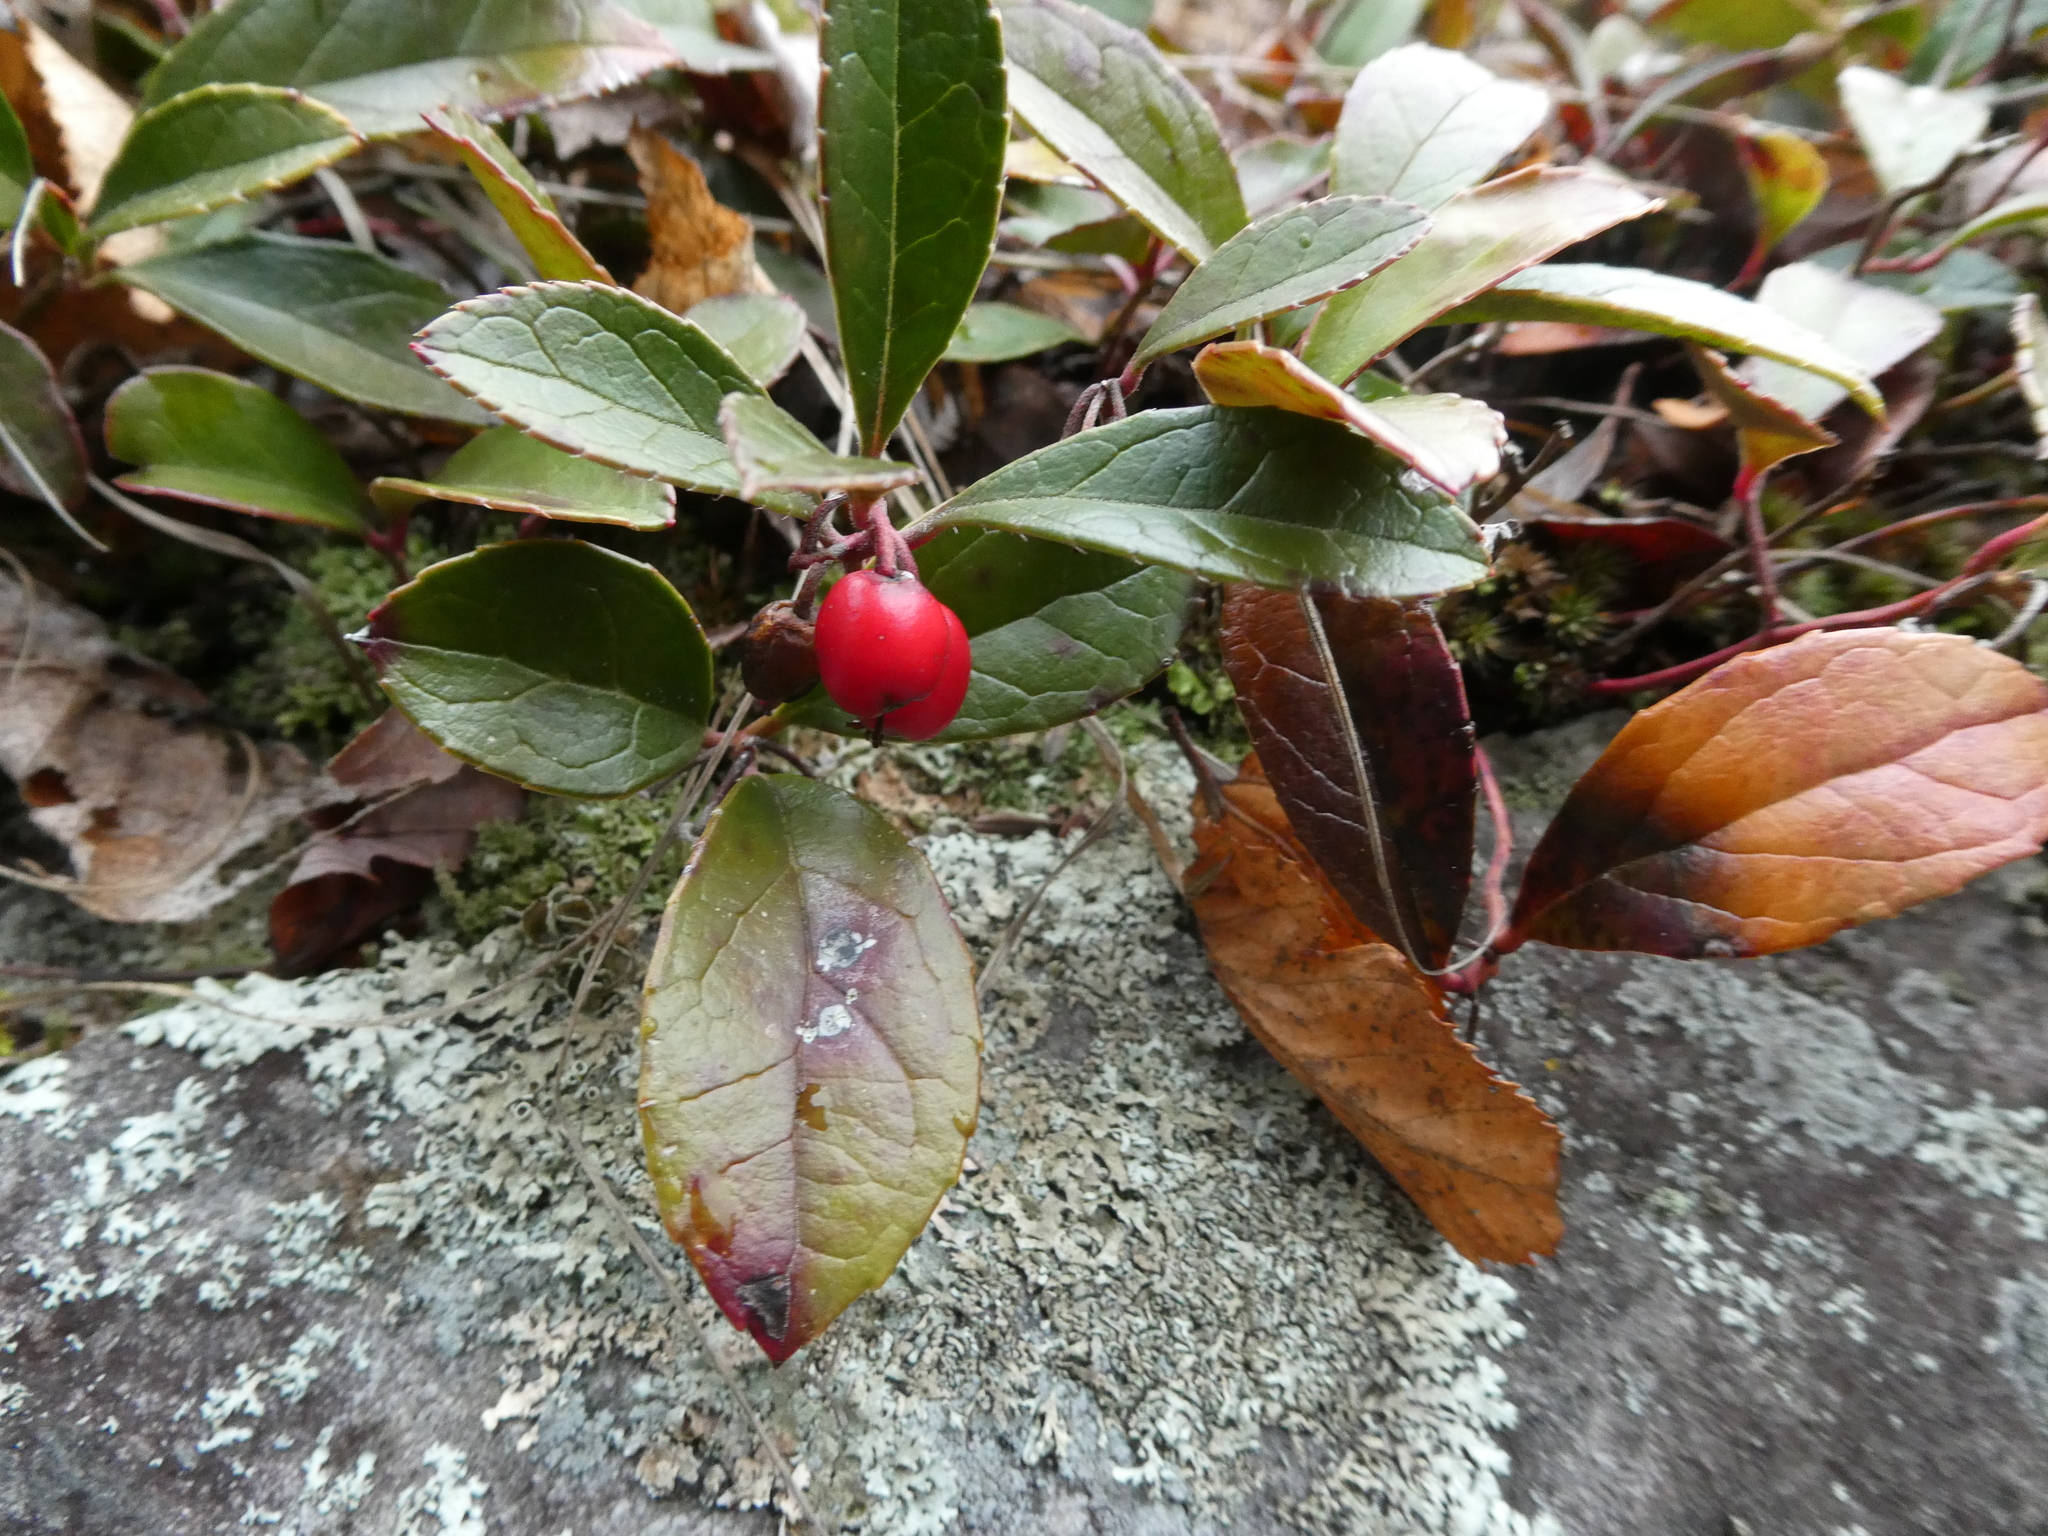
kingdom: Plantae
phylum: Tracheophyta
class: Magnoliopsida
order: Ericales
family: Ericaceae
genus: Gaultheria
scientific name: Gaultheria procumbens
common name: Checkerberry
